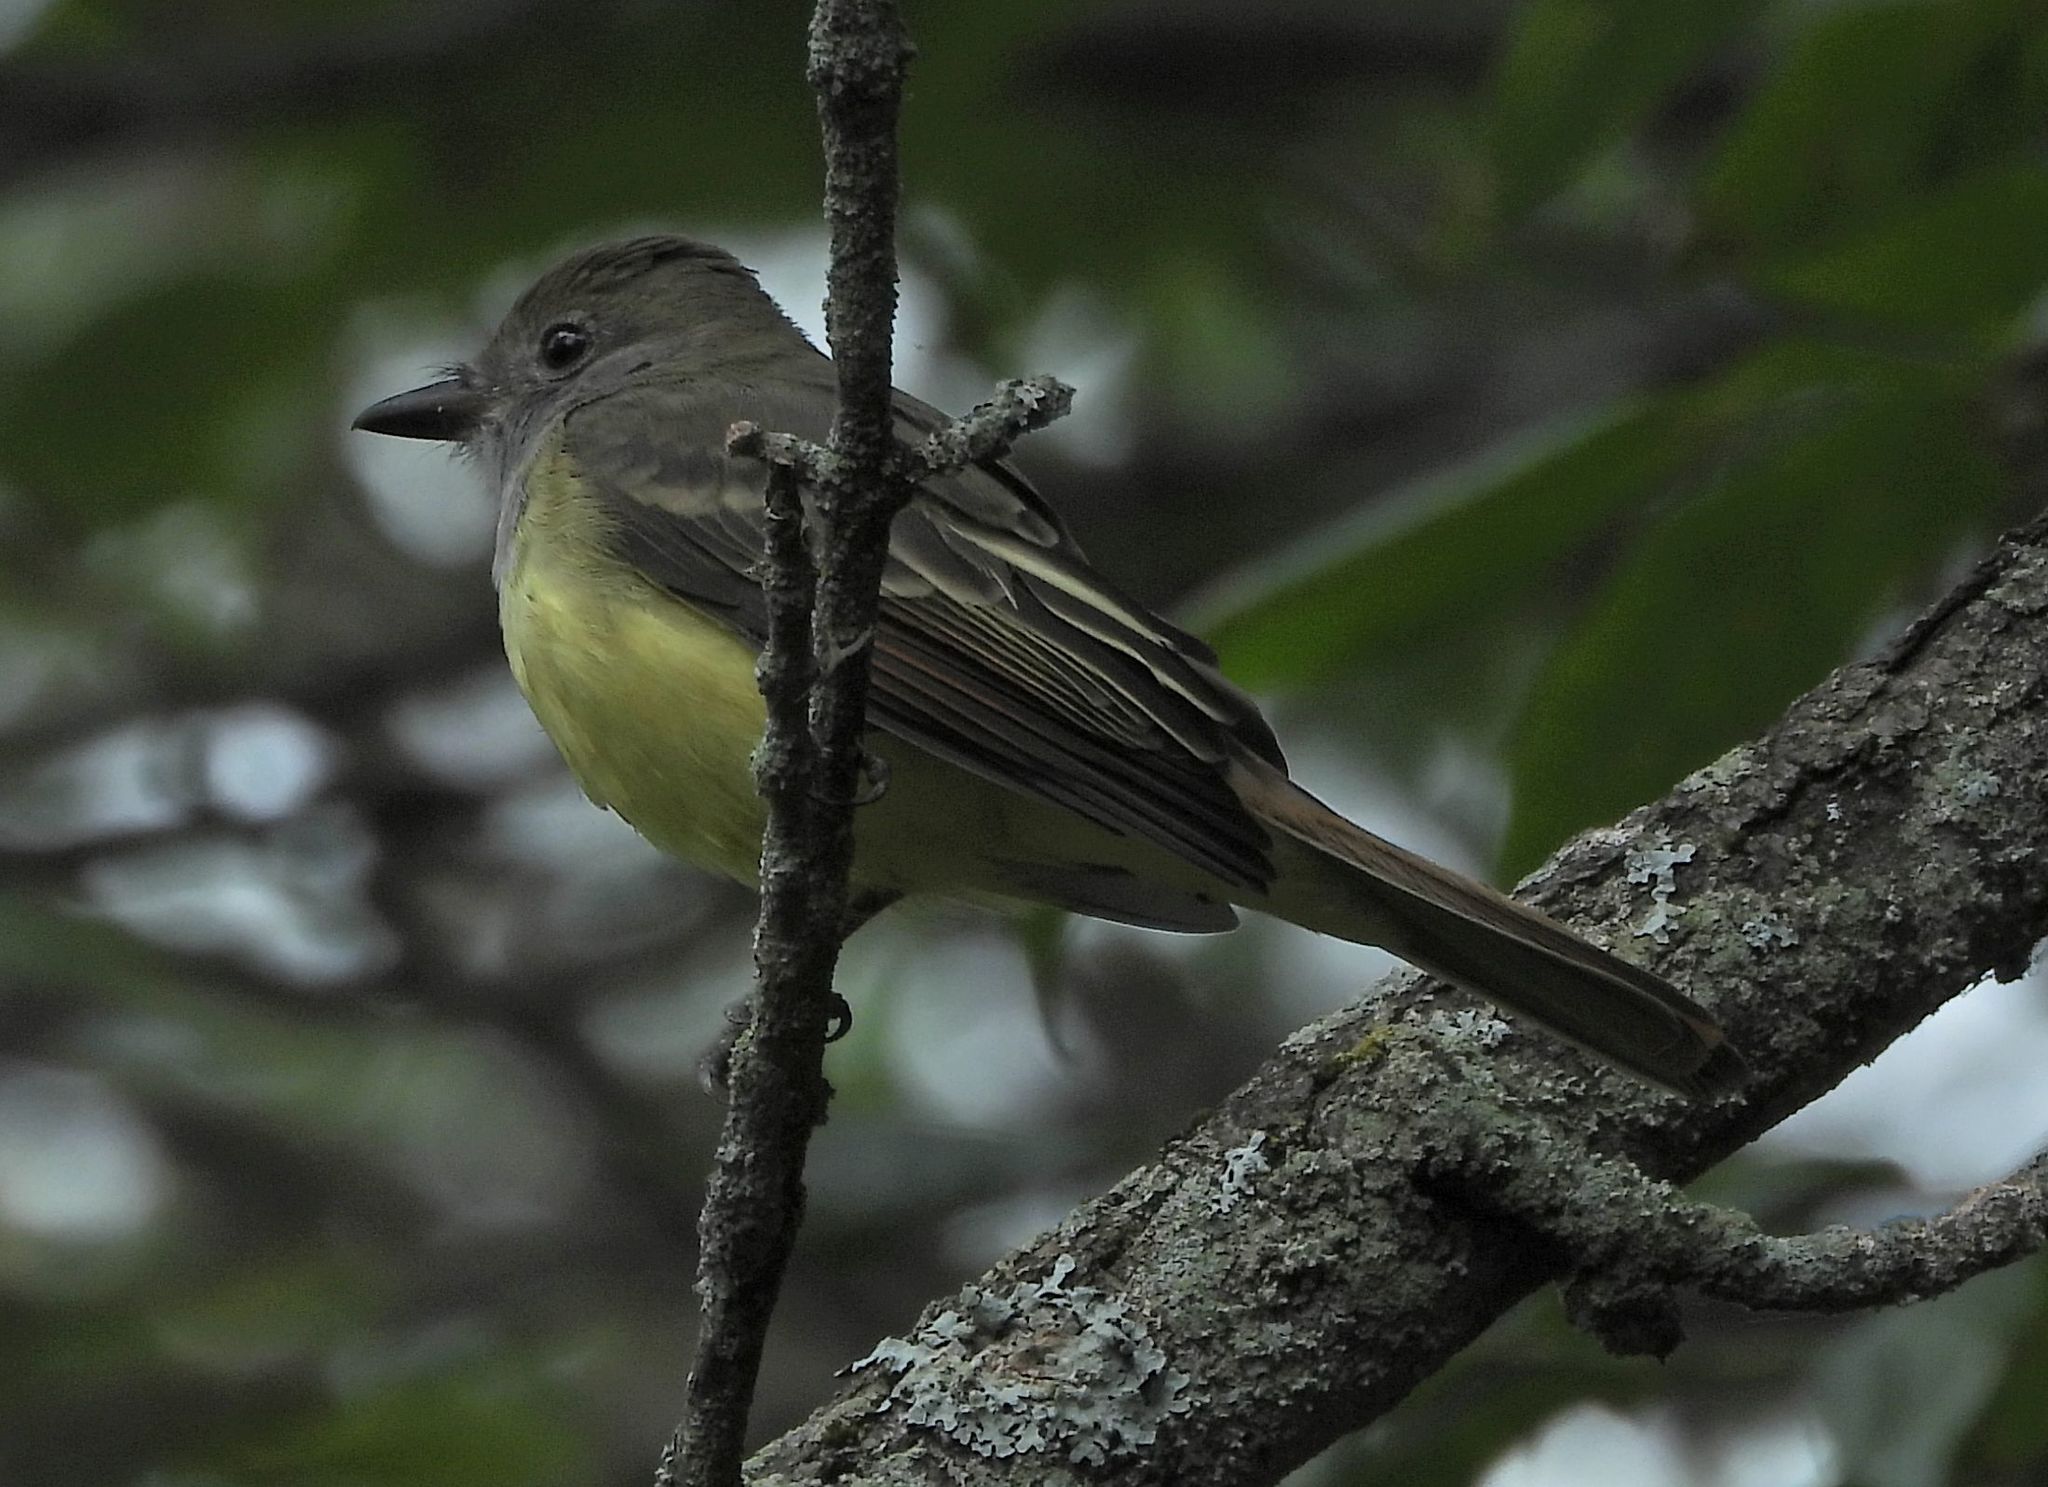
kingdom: Animalia
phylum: Chordata
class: Aves
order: Passeriformes
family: Tyrannidae
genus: Myiarchus
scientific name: Myiarchus crinitus
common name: Great crested flycatcher
